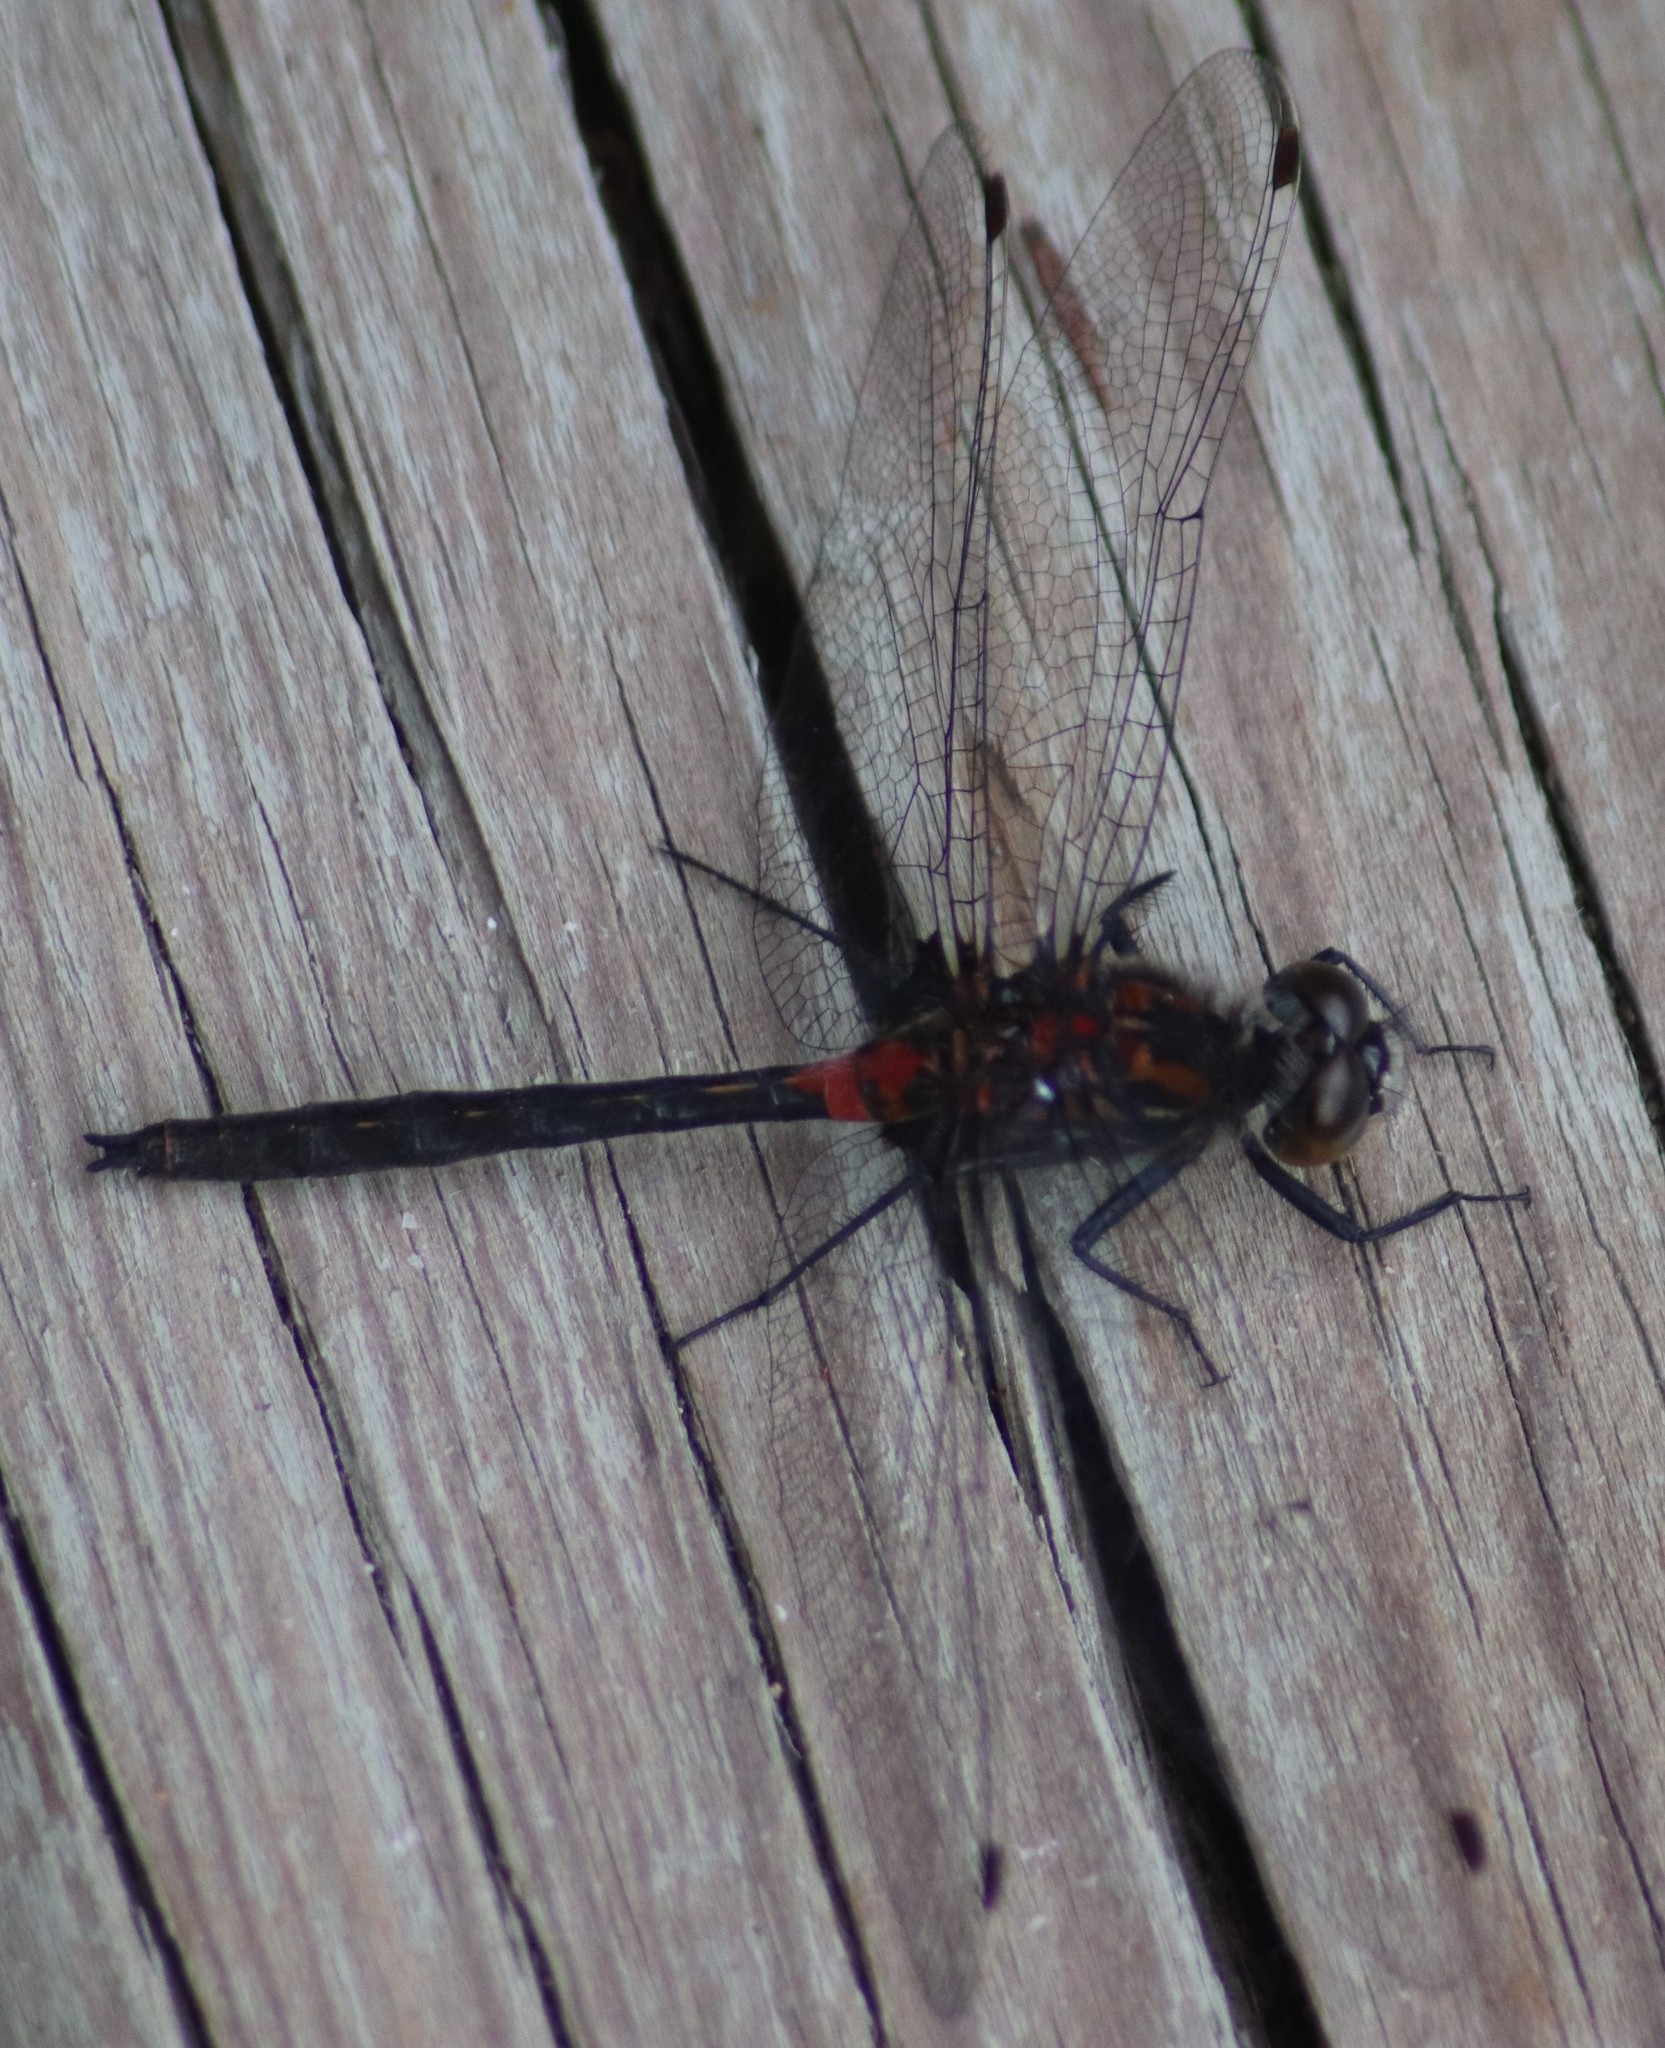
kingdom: Animalia
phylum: Arthropoda
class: Insecta
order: Odonata
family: Libellulidae
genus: Leucorrhinia
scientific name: Leucorrhinia proxima
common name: Belted whiteface
